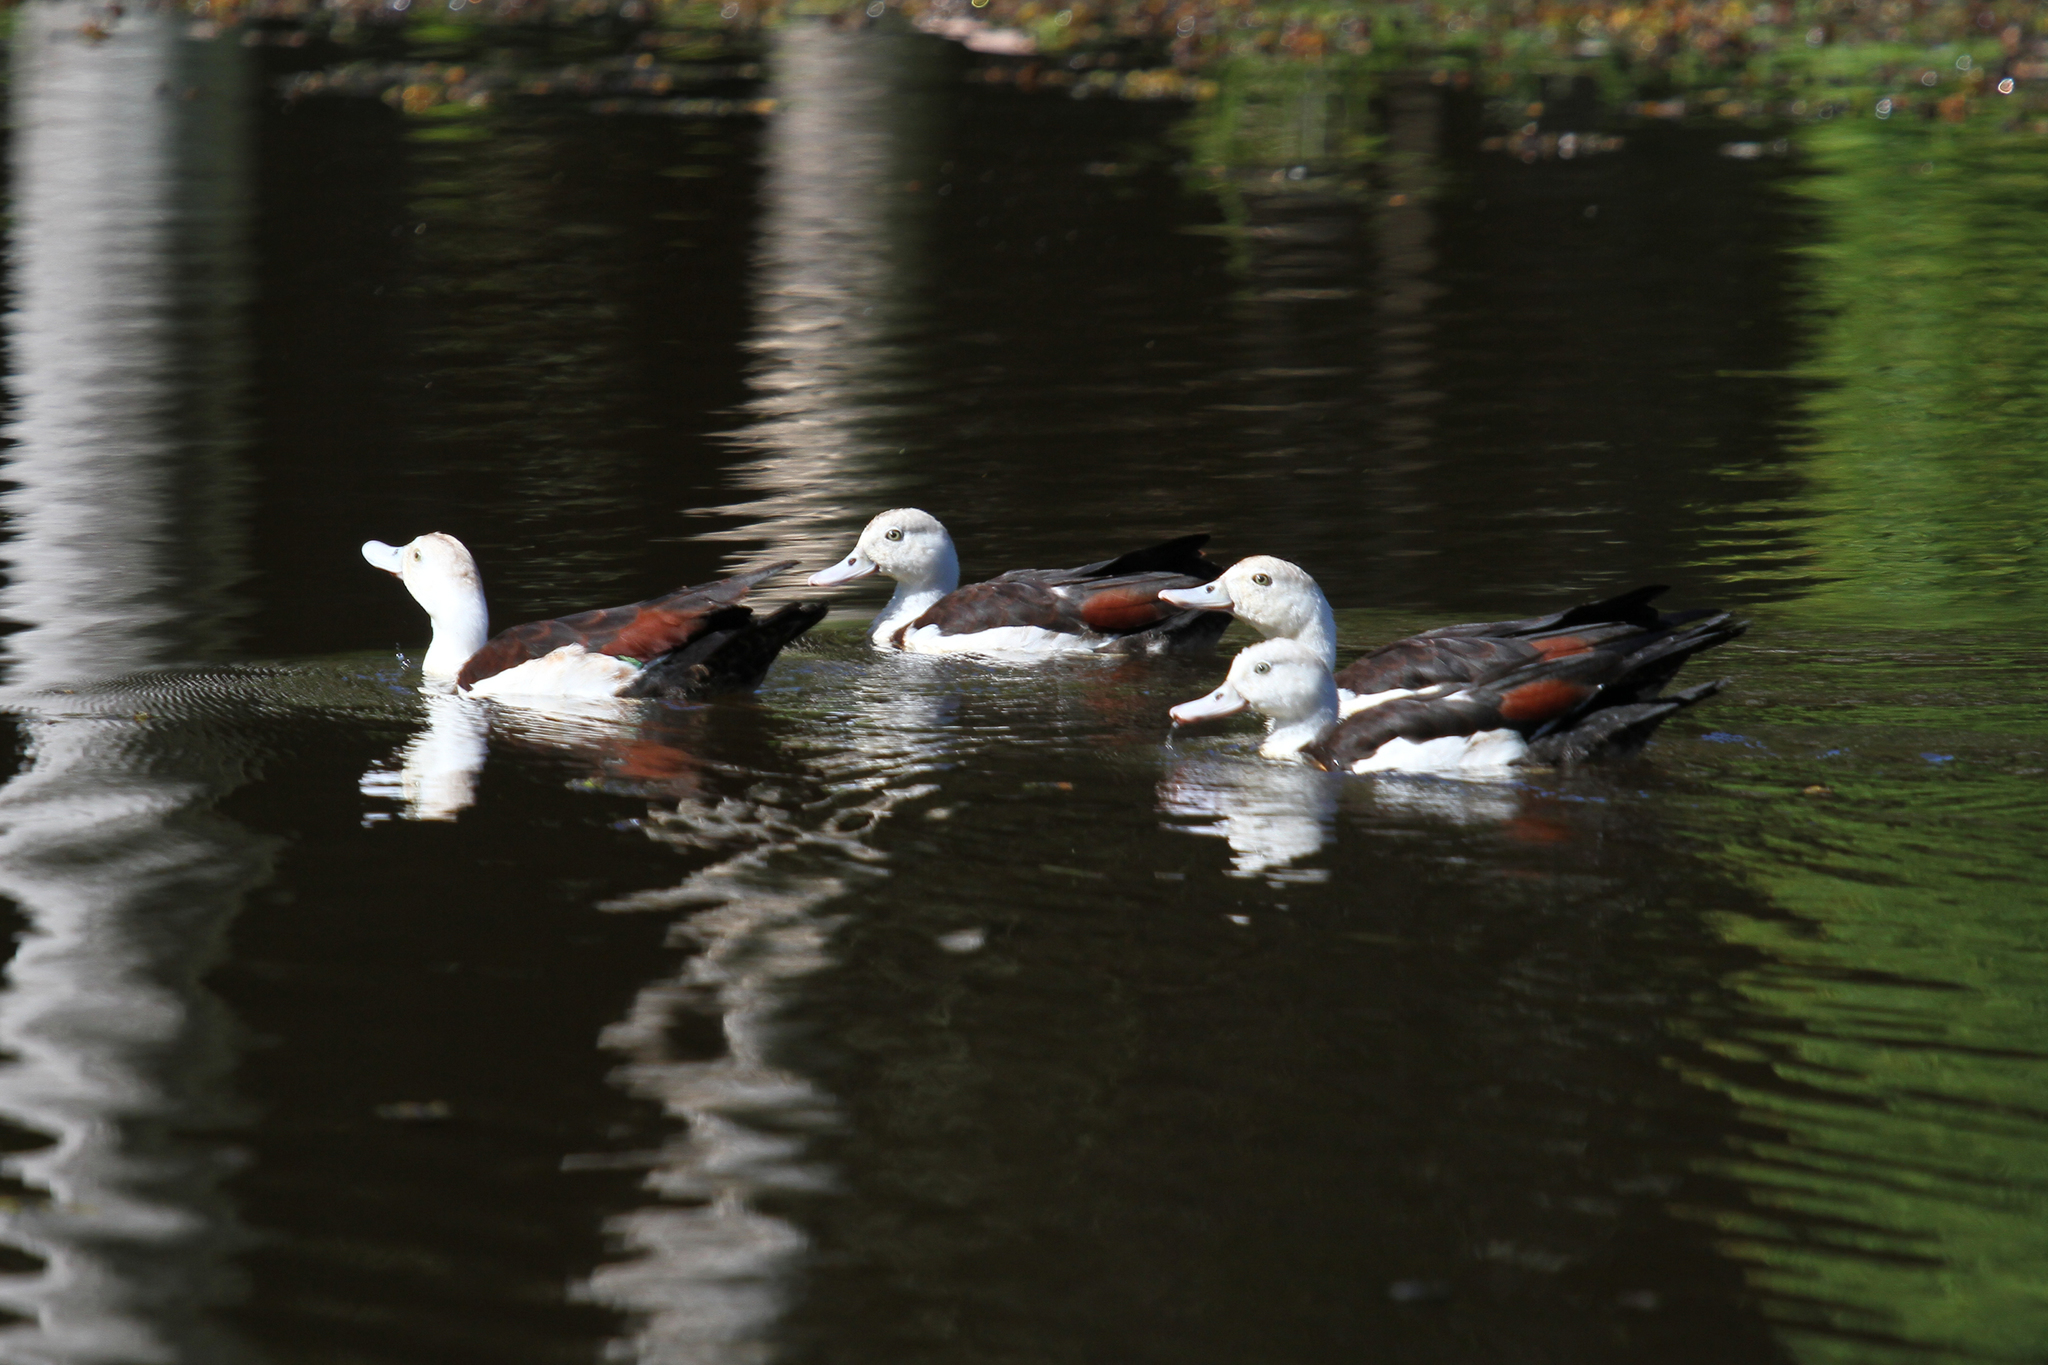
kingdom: Animalia
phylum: Chordata
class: Aves
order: Anseriformes
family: Anatidae
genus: Radjah
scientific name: Radjah radjah
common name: Radjah shelduck
